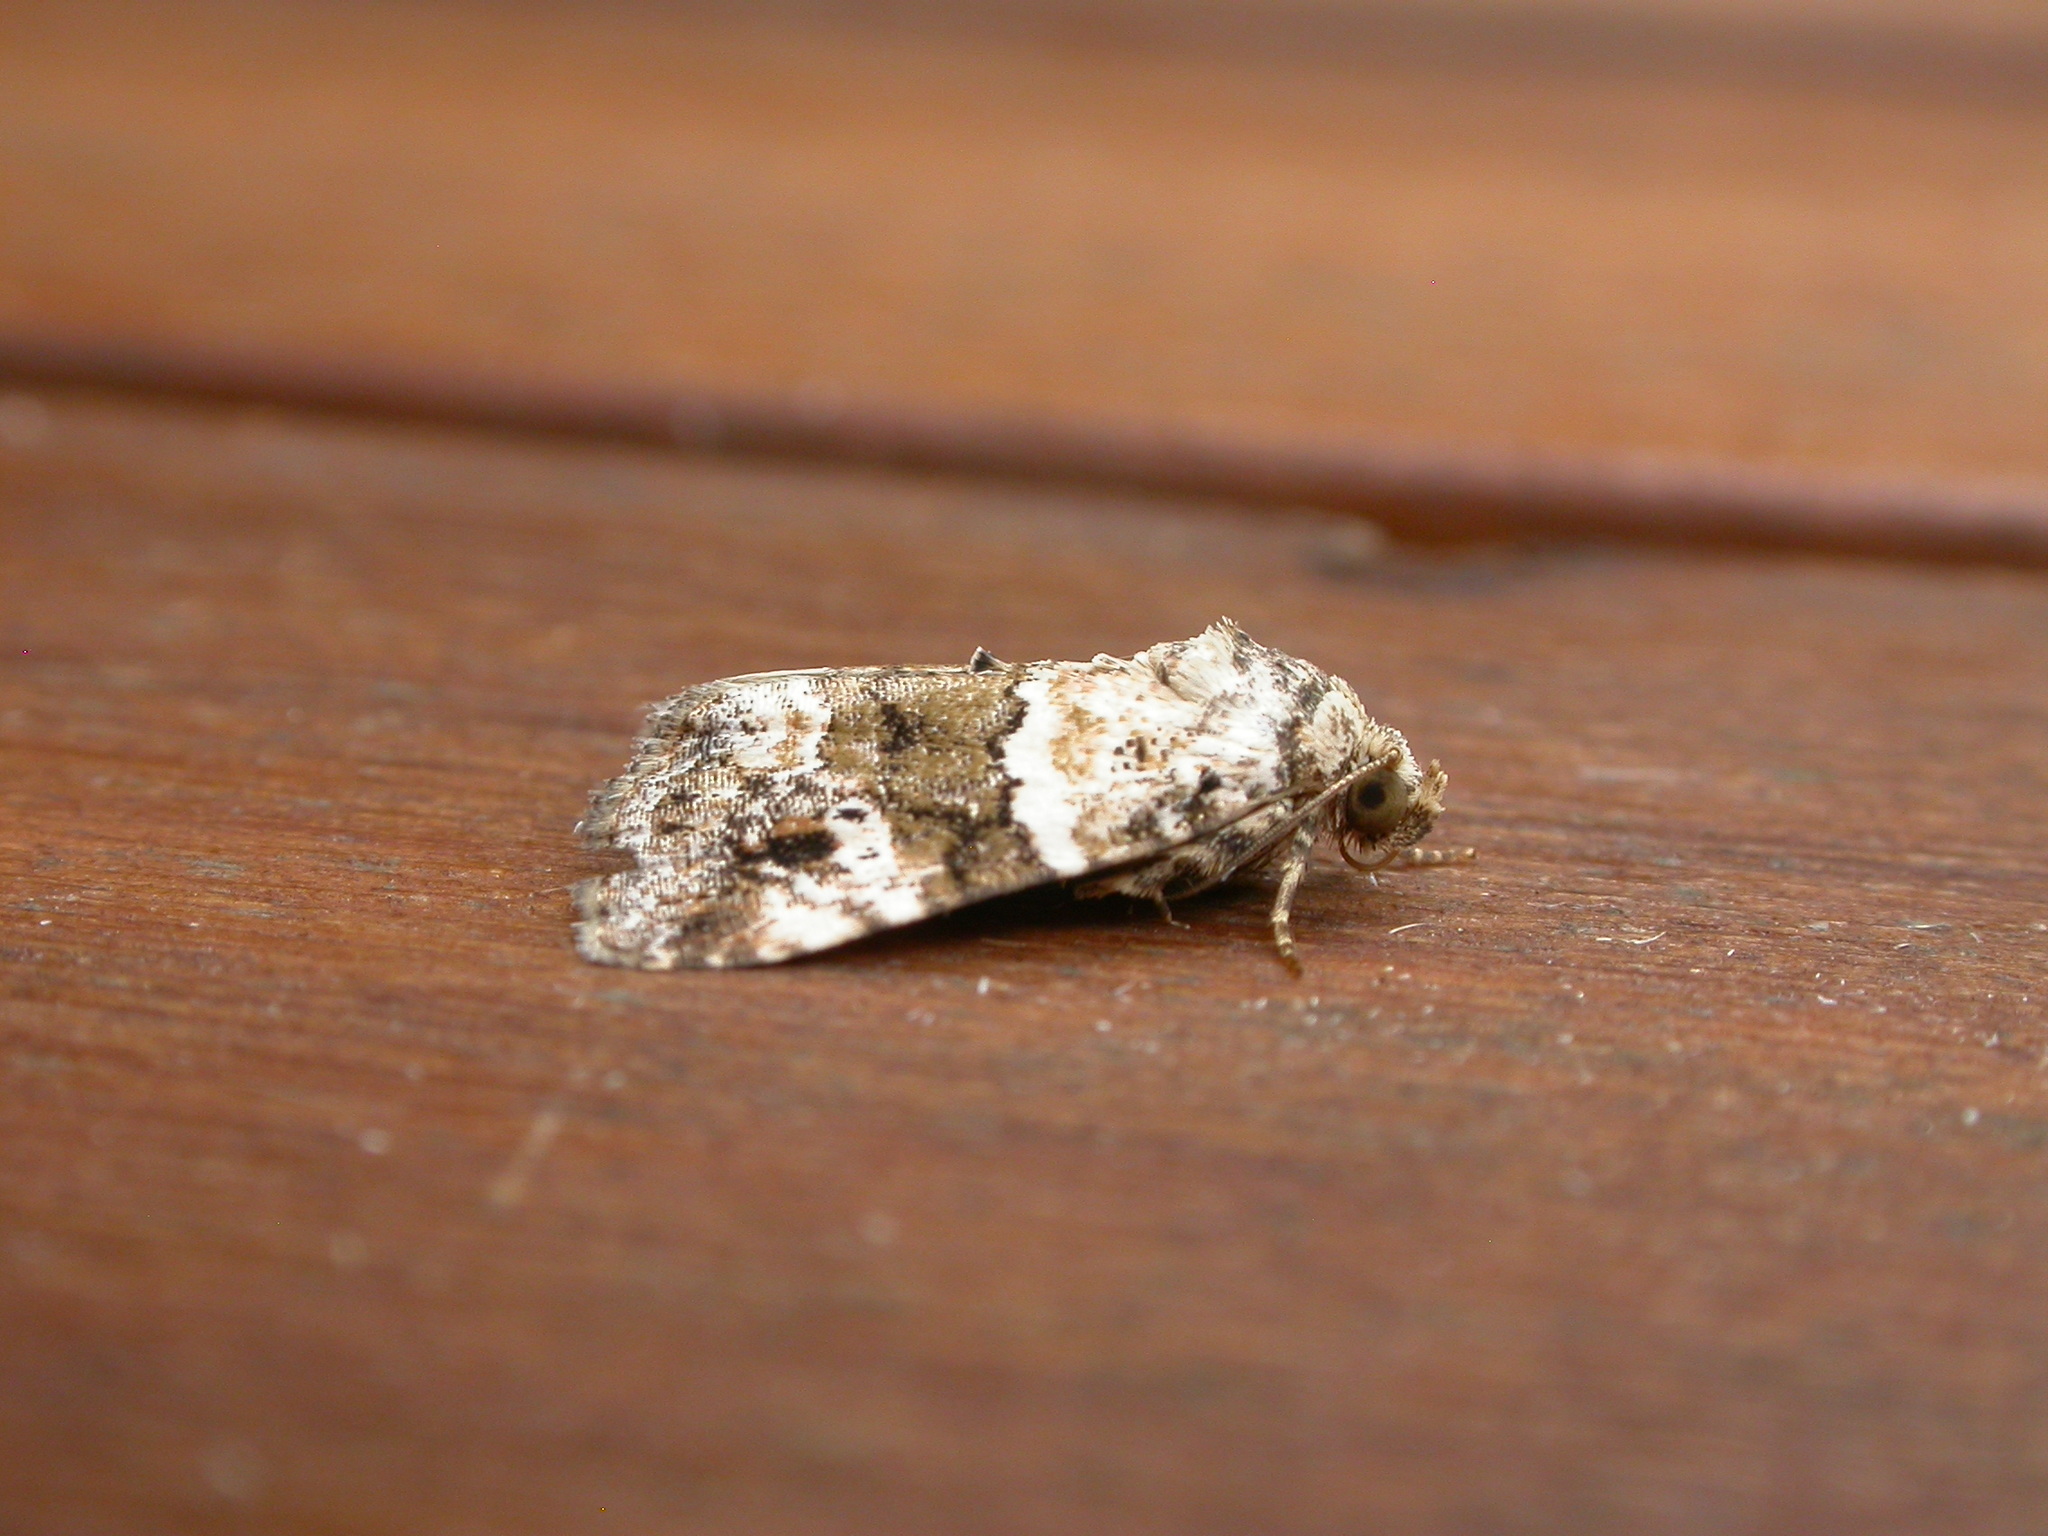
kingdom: Animalia
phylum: Arthropoda
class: Insecta
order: Lepidoptera
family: Noctuidae
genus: Maliattha
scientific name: Maliattha signifera
